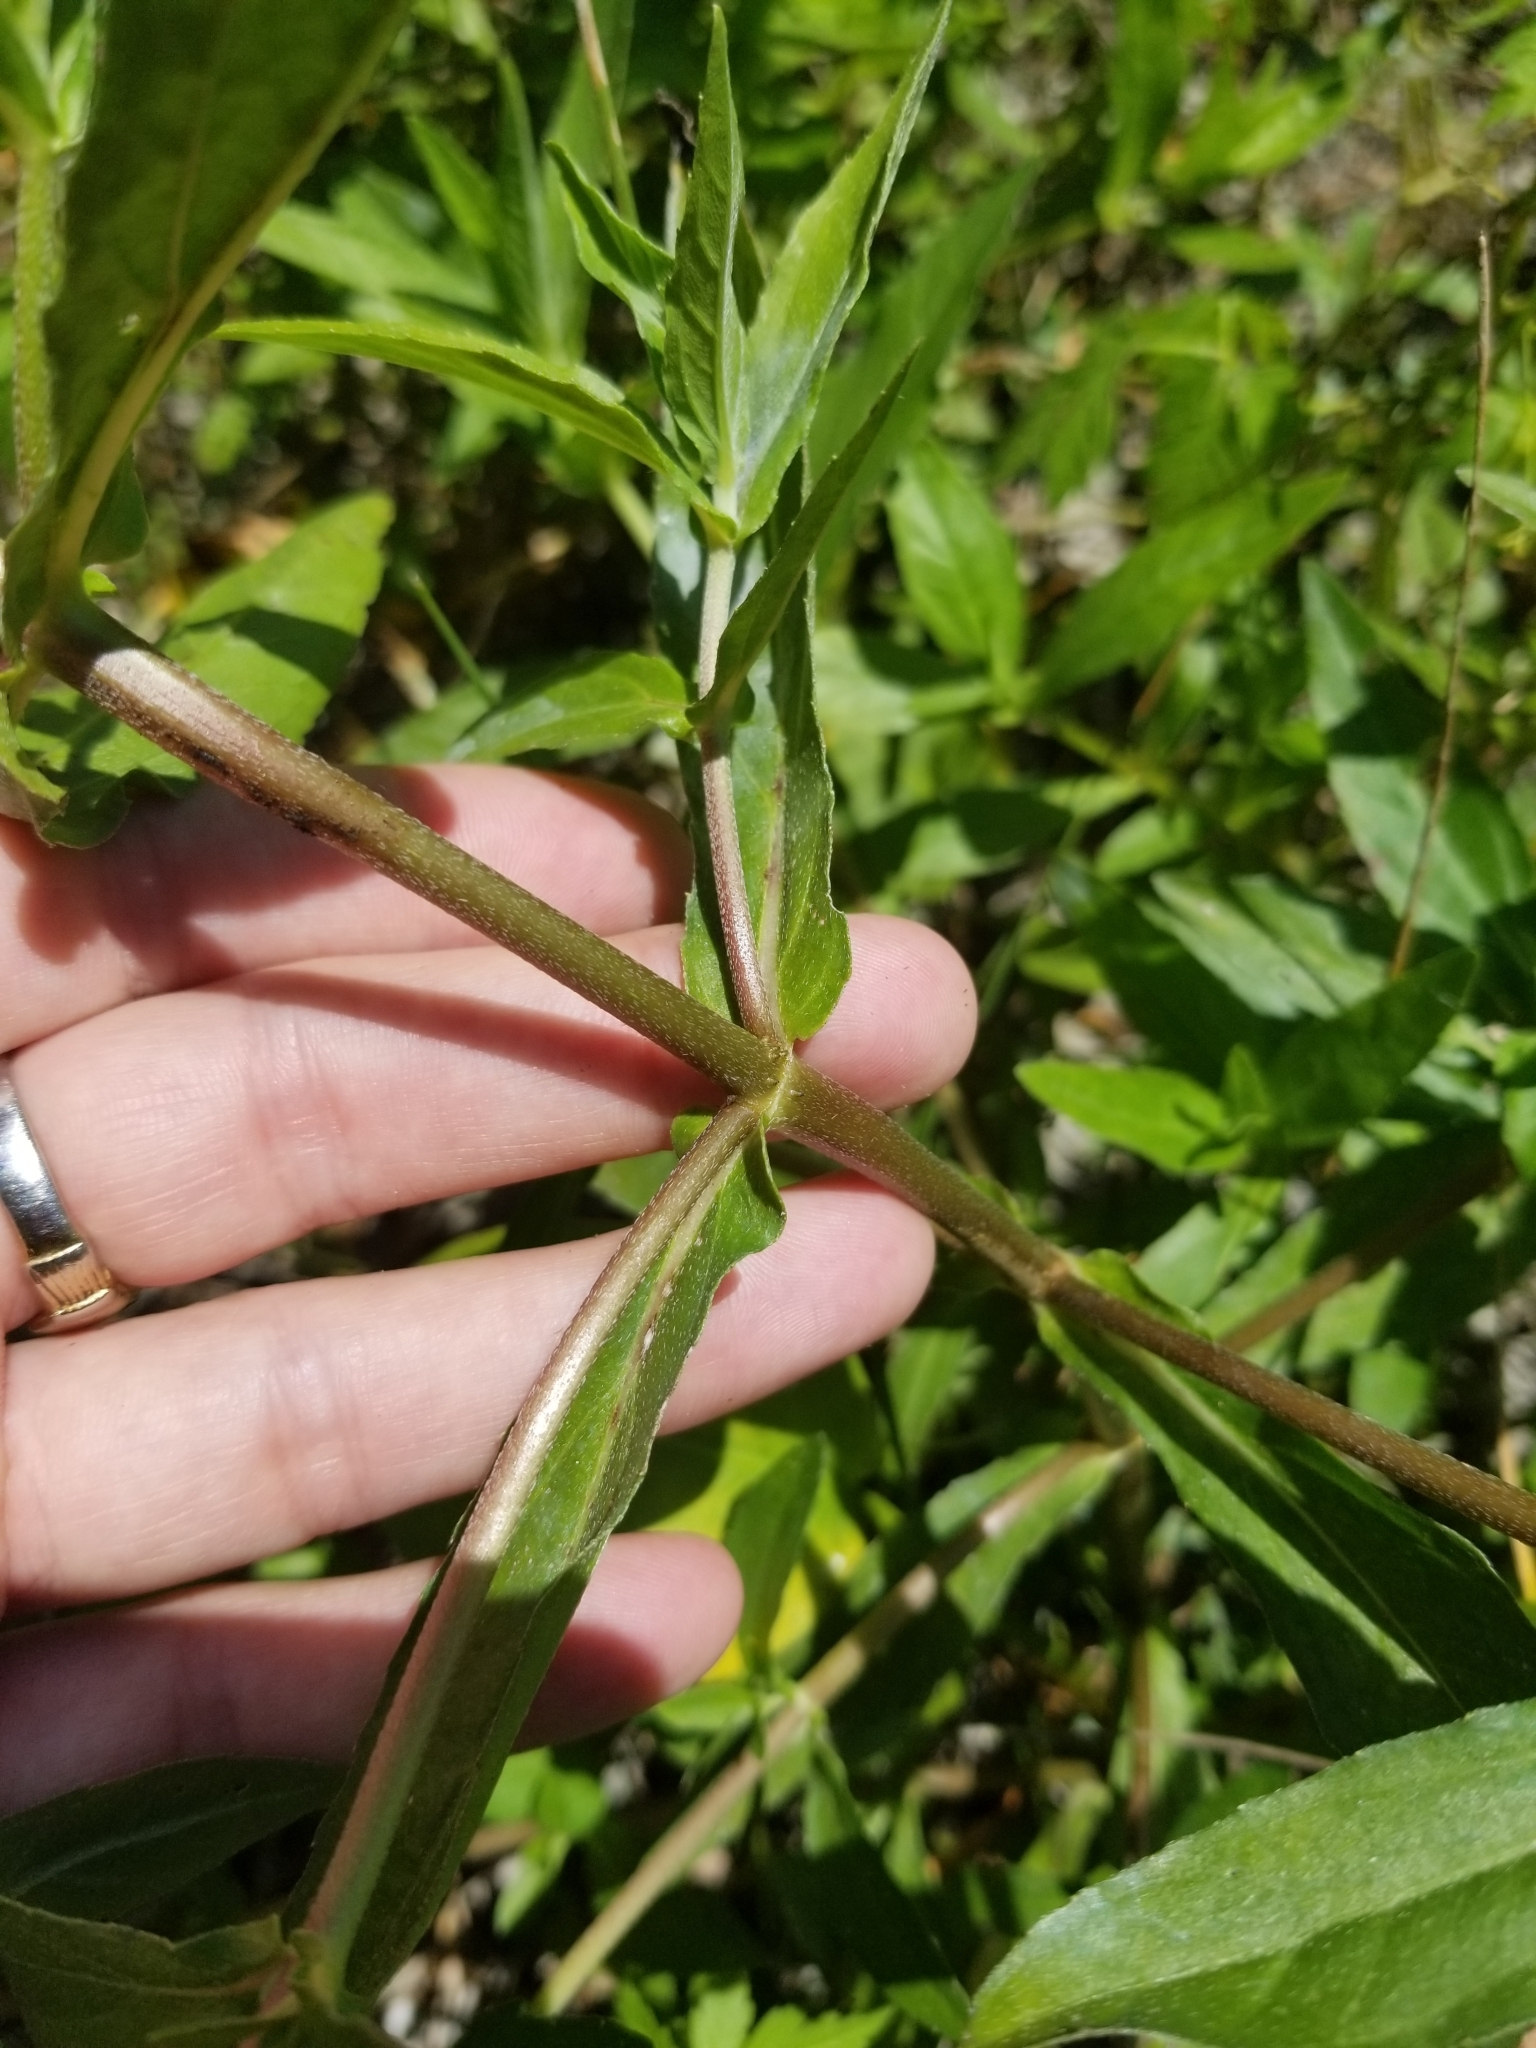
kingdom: Plantae
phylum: Tracheophyta
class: Magnoliopsida
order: Asterales
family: Asteraceae
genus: Eclipta
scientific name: Eclipta prostrata
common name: False daisy
